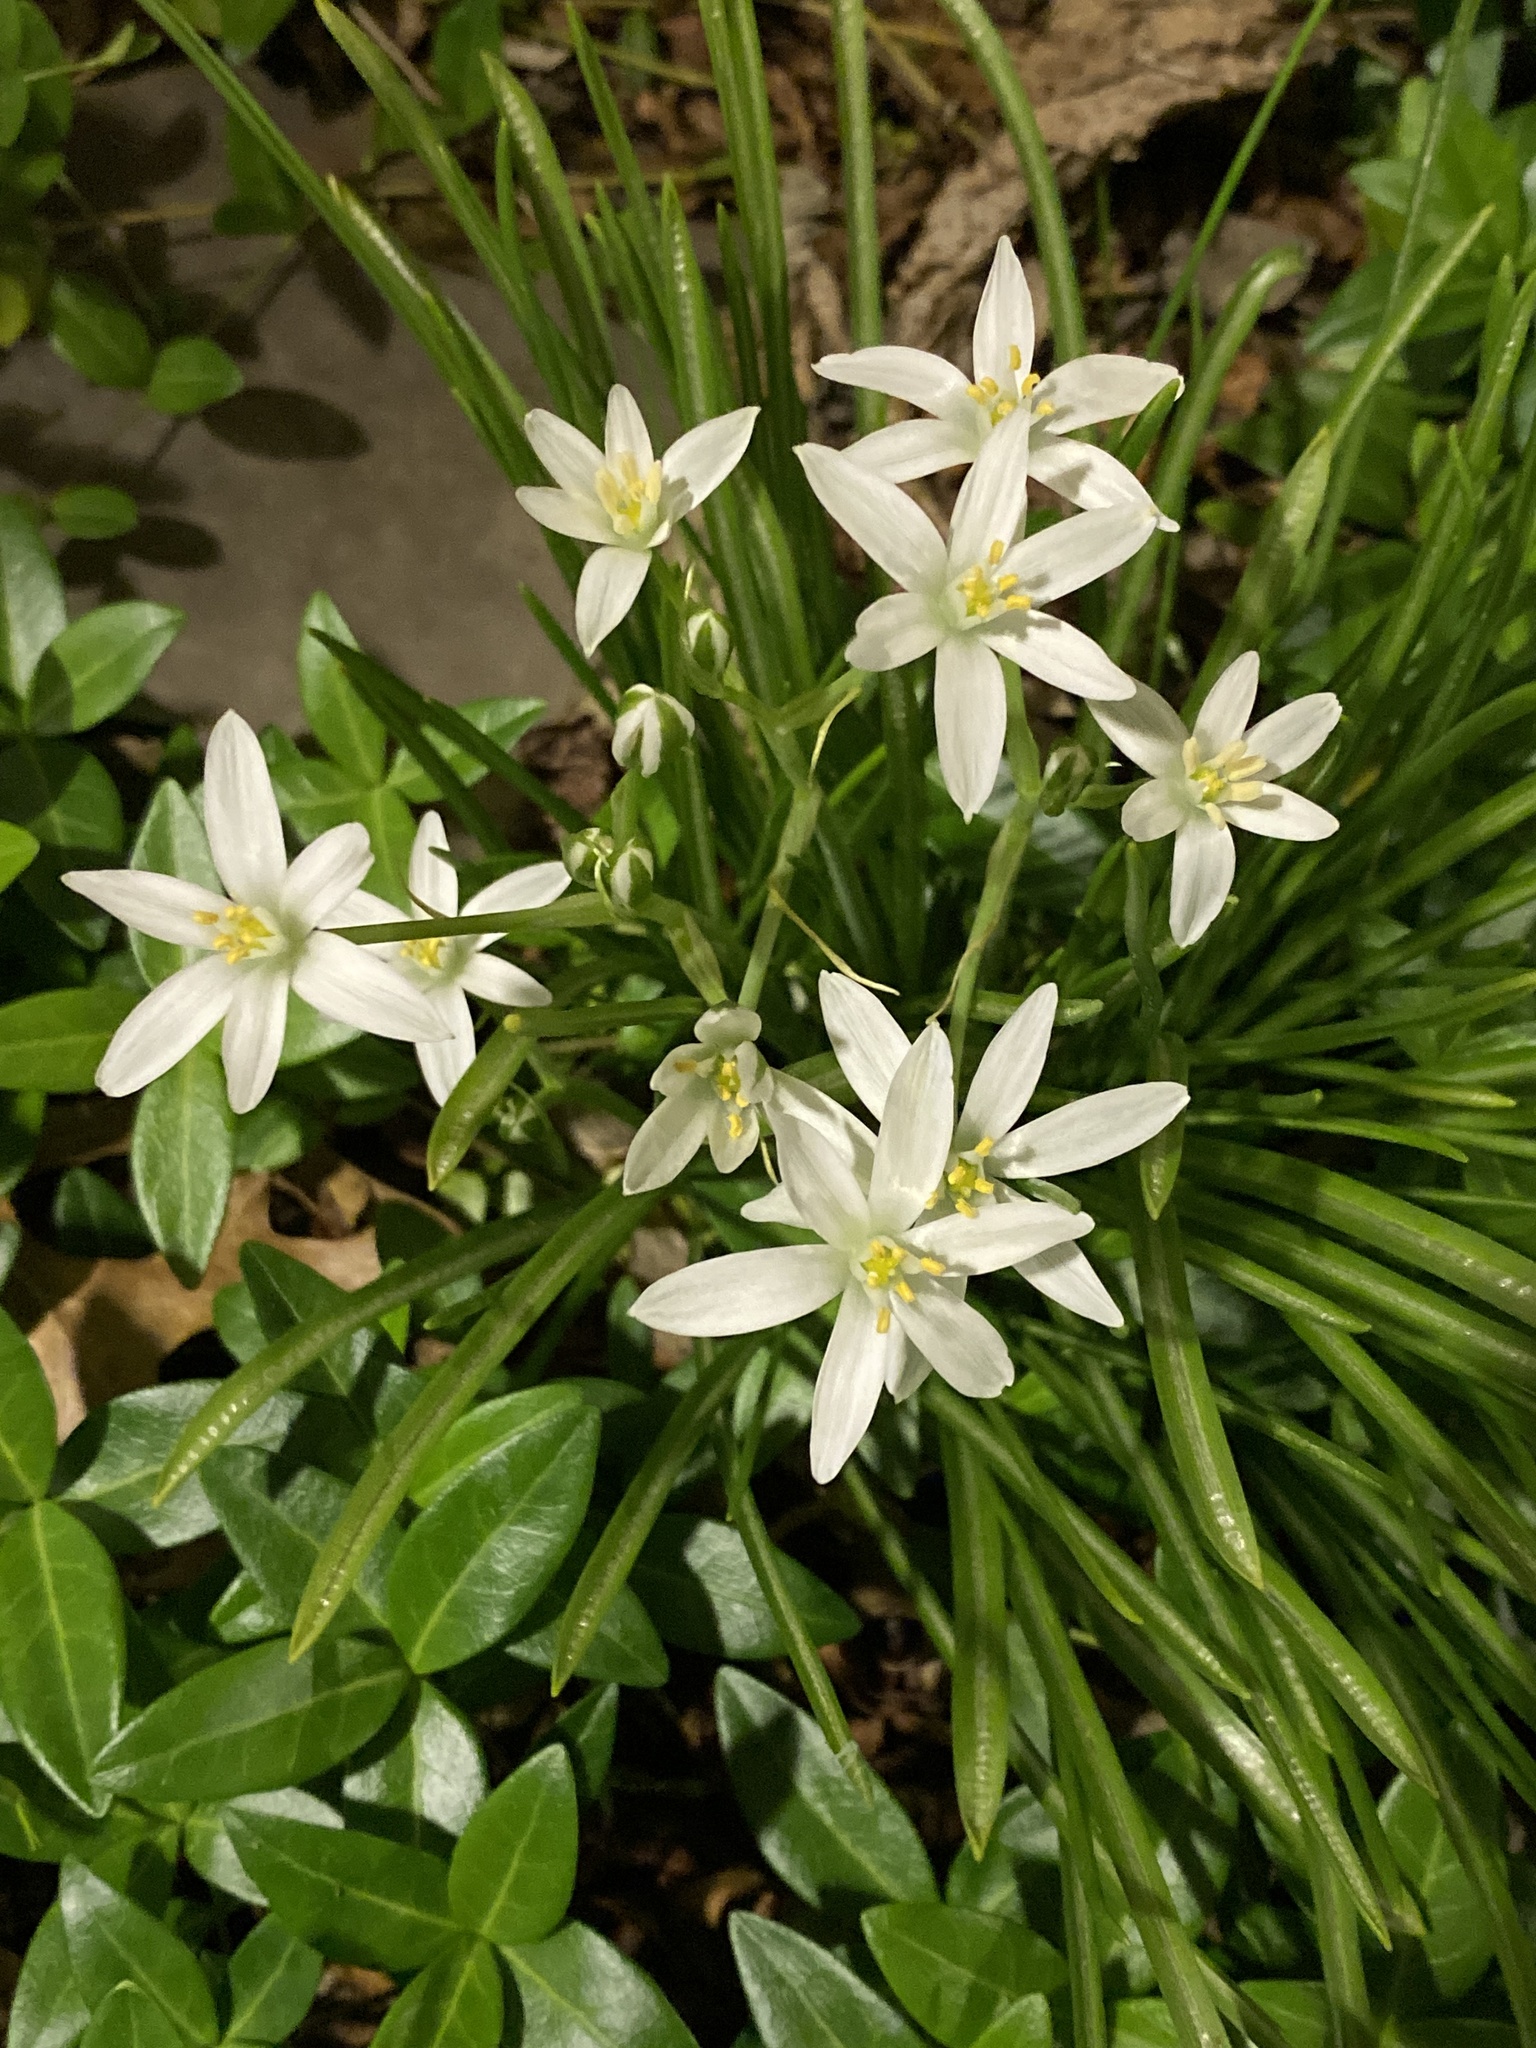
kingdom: Plantae
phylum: Tracheophyta
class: Liliopsida
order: Asparagales
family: Asparagaceae
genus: Ornithogalum
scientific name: Ornithogalum umbellatum
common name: Garden star-of-bethlehem
